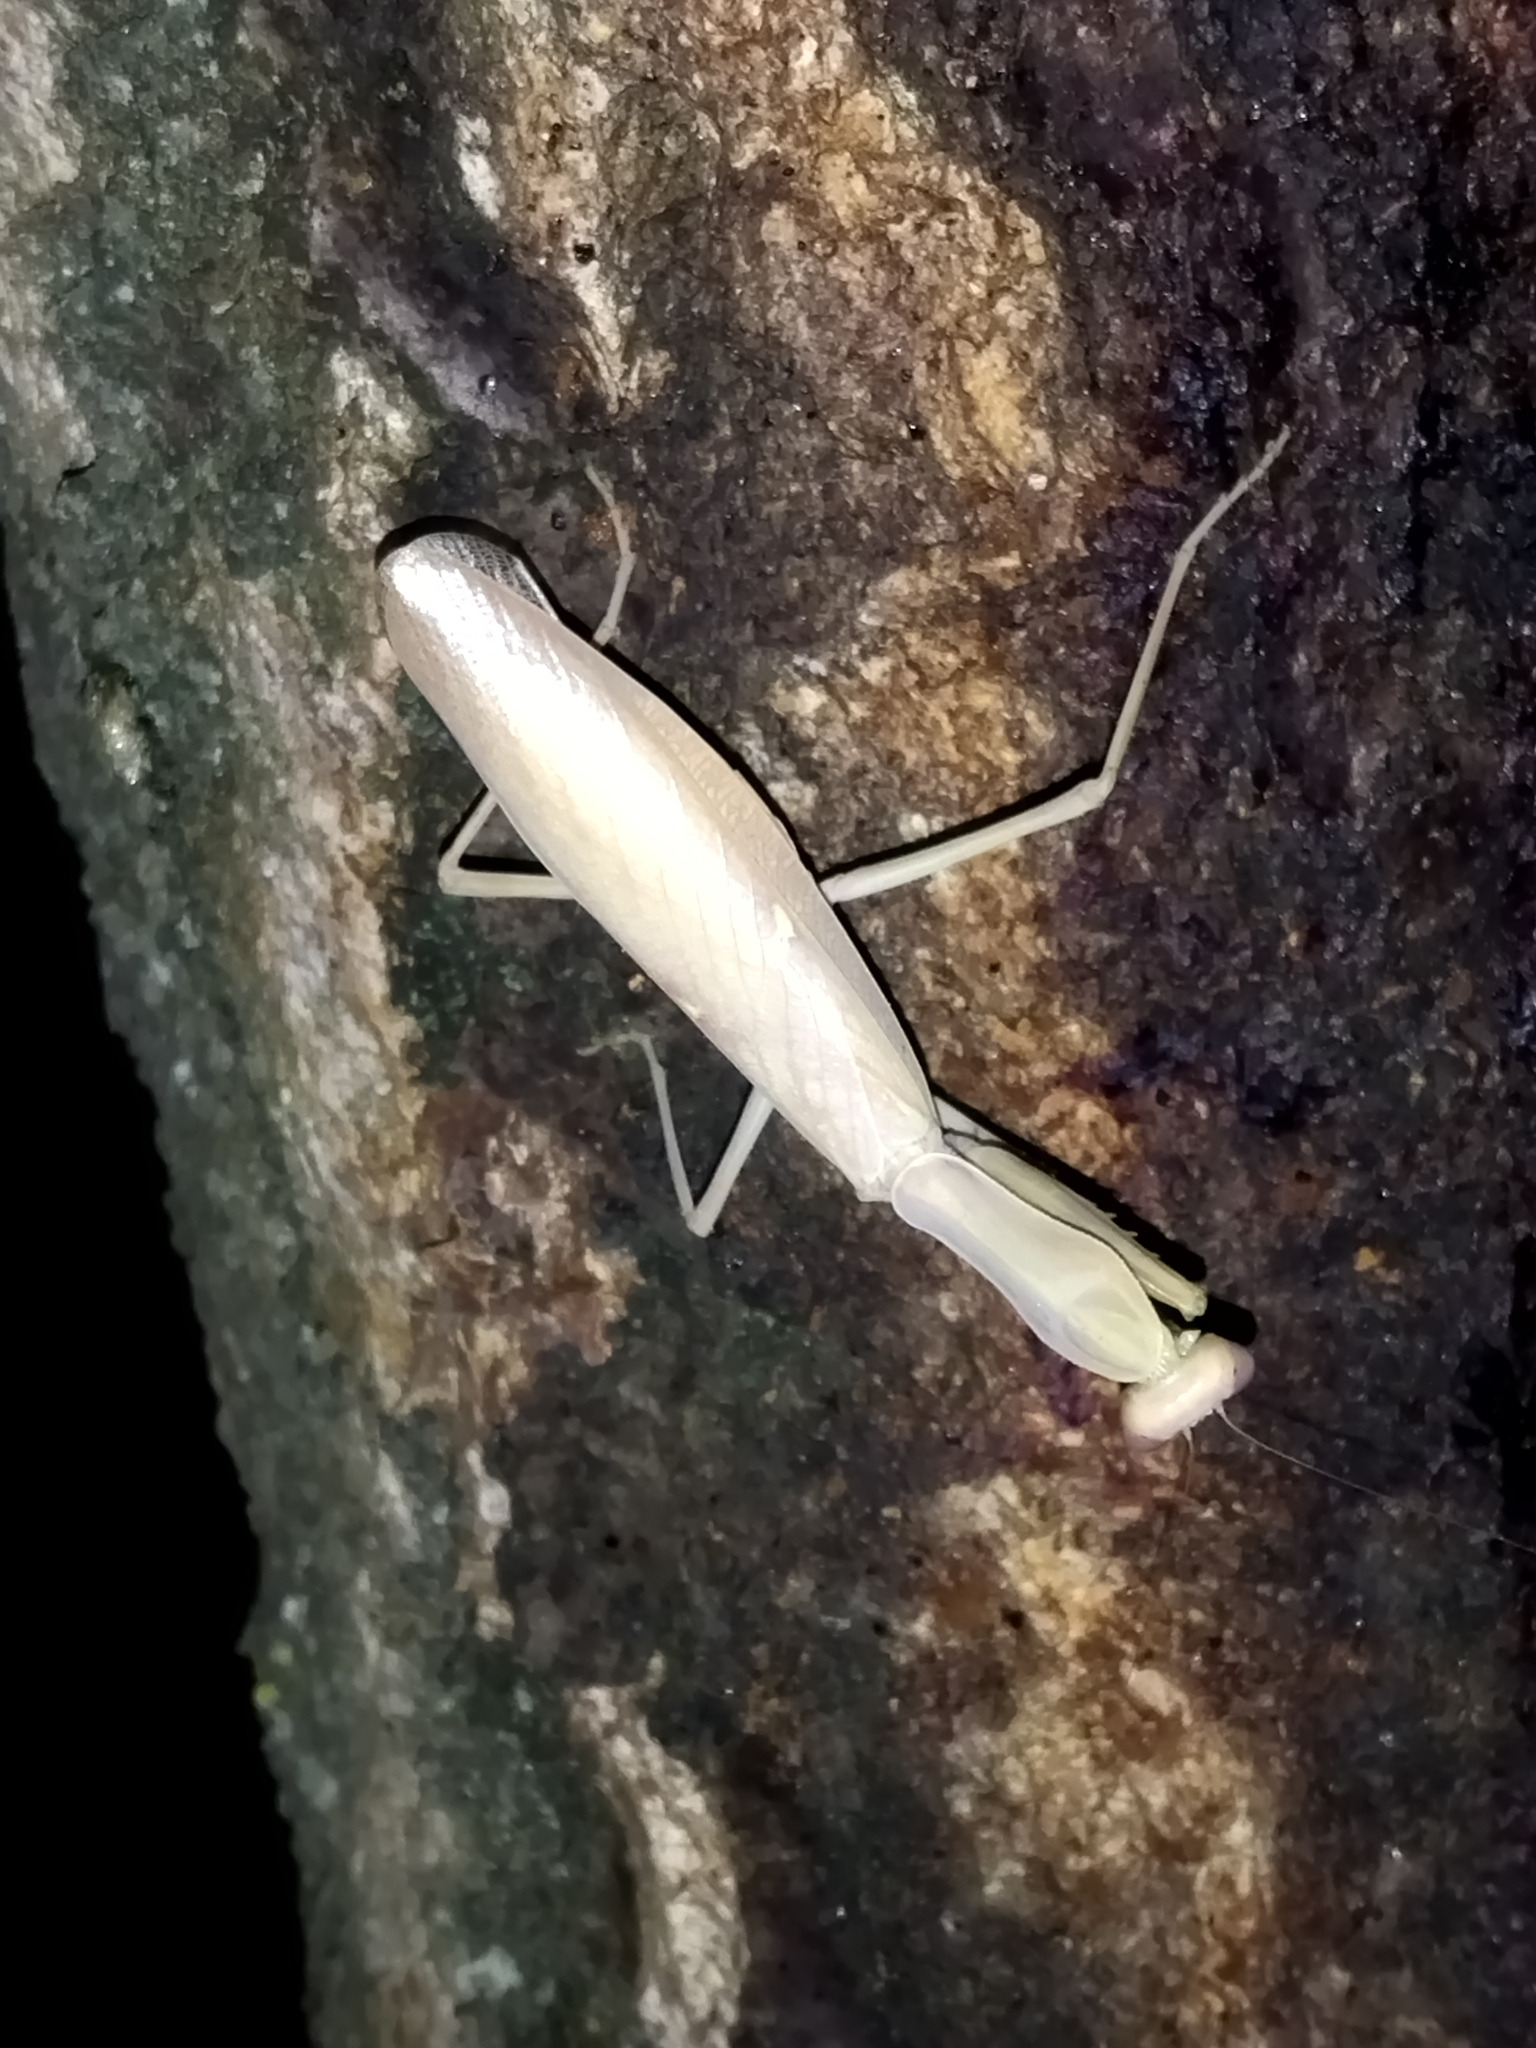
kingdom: Animalia
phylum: Arthropoda
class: Insecta
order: Mantodea
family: Mantidae
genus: Hierodula
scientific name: Hierodula transcaucasica
